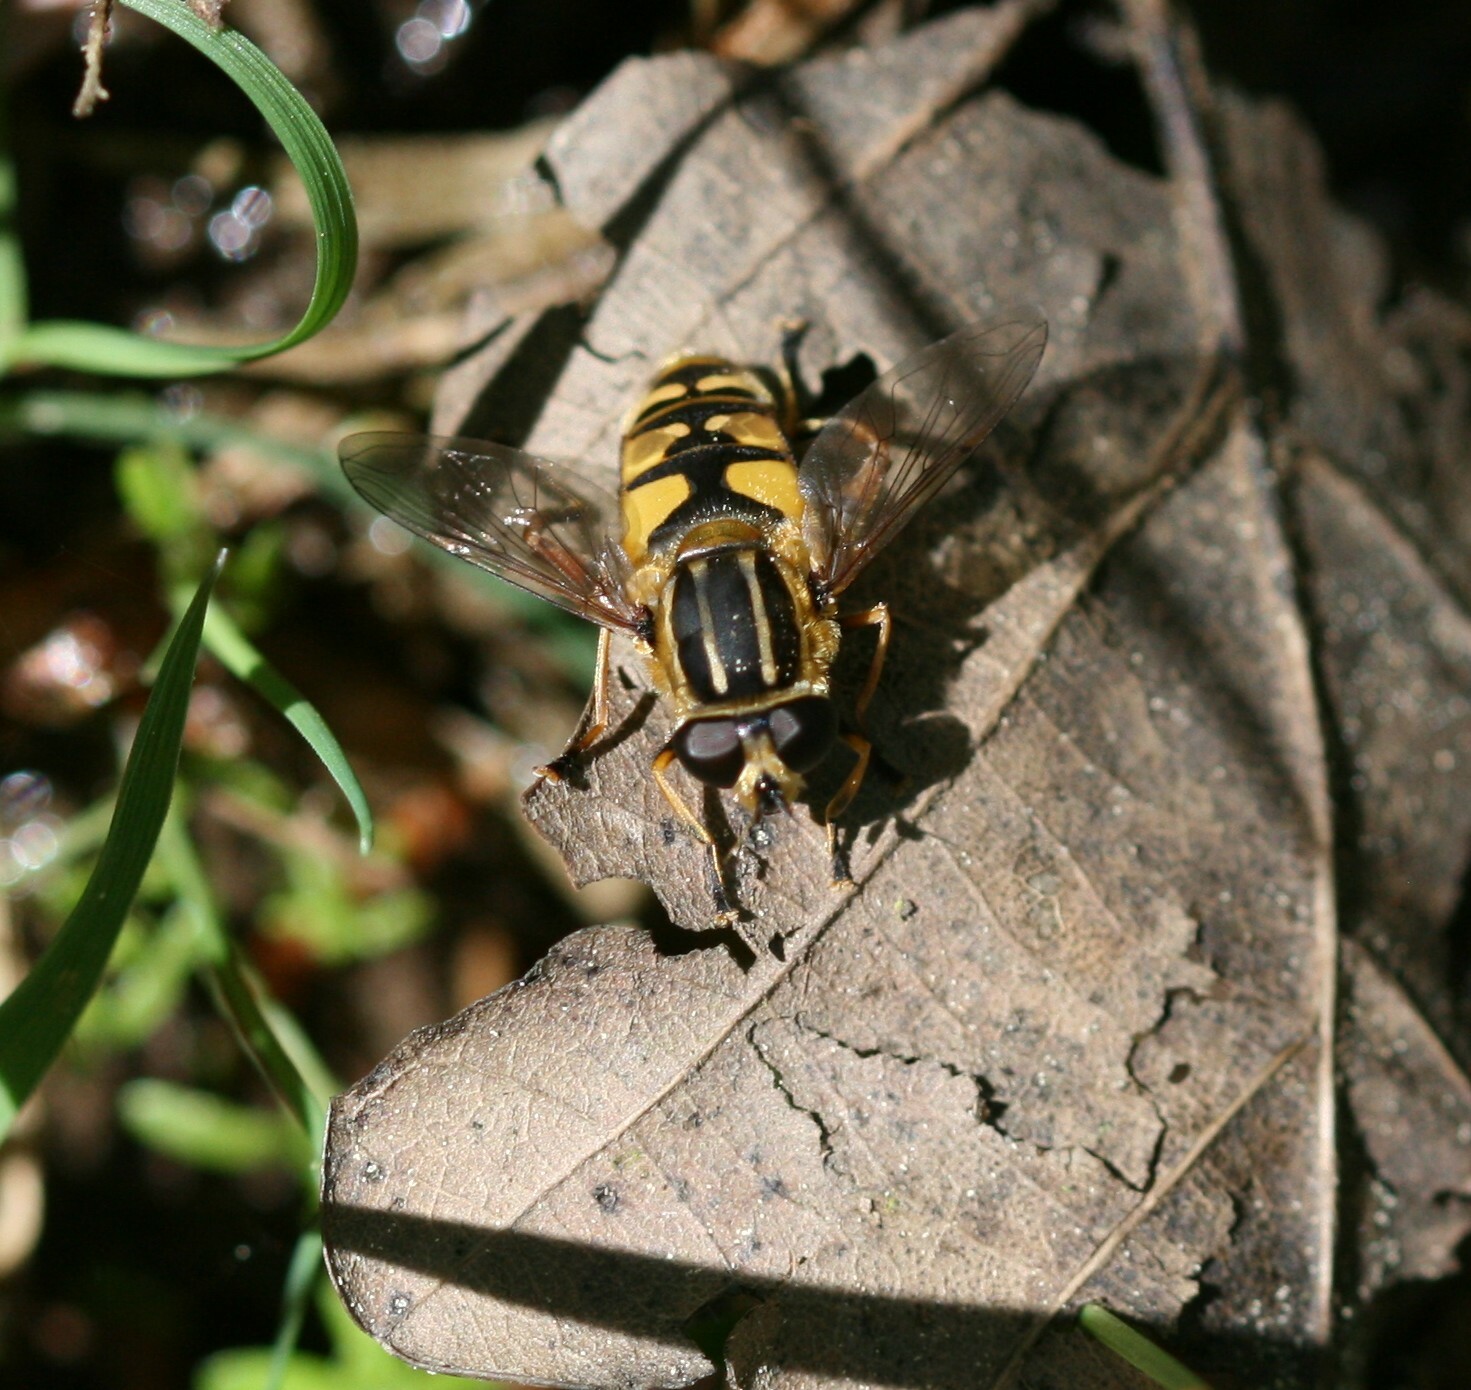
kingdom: Animalia
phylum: Arthropoda
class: Insecta
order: Diptera
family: Syrphidae
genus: Helophilus
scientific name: Helophilus pendulus
